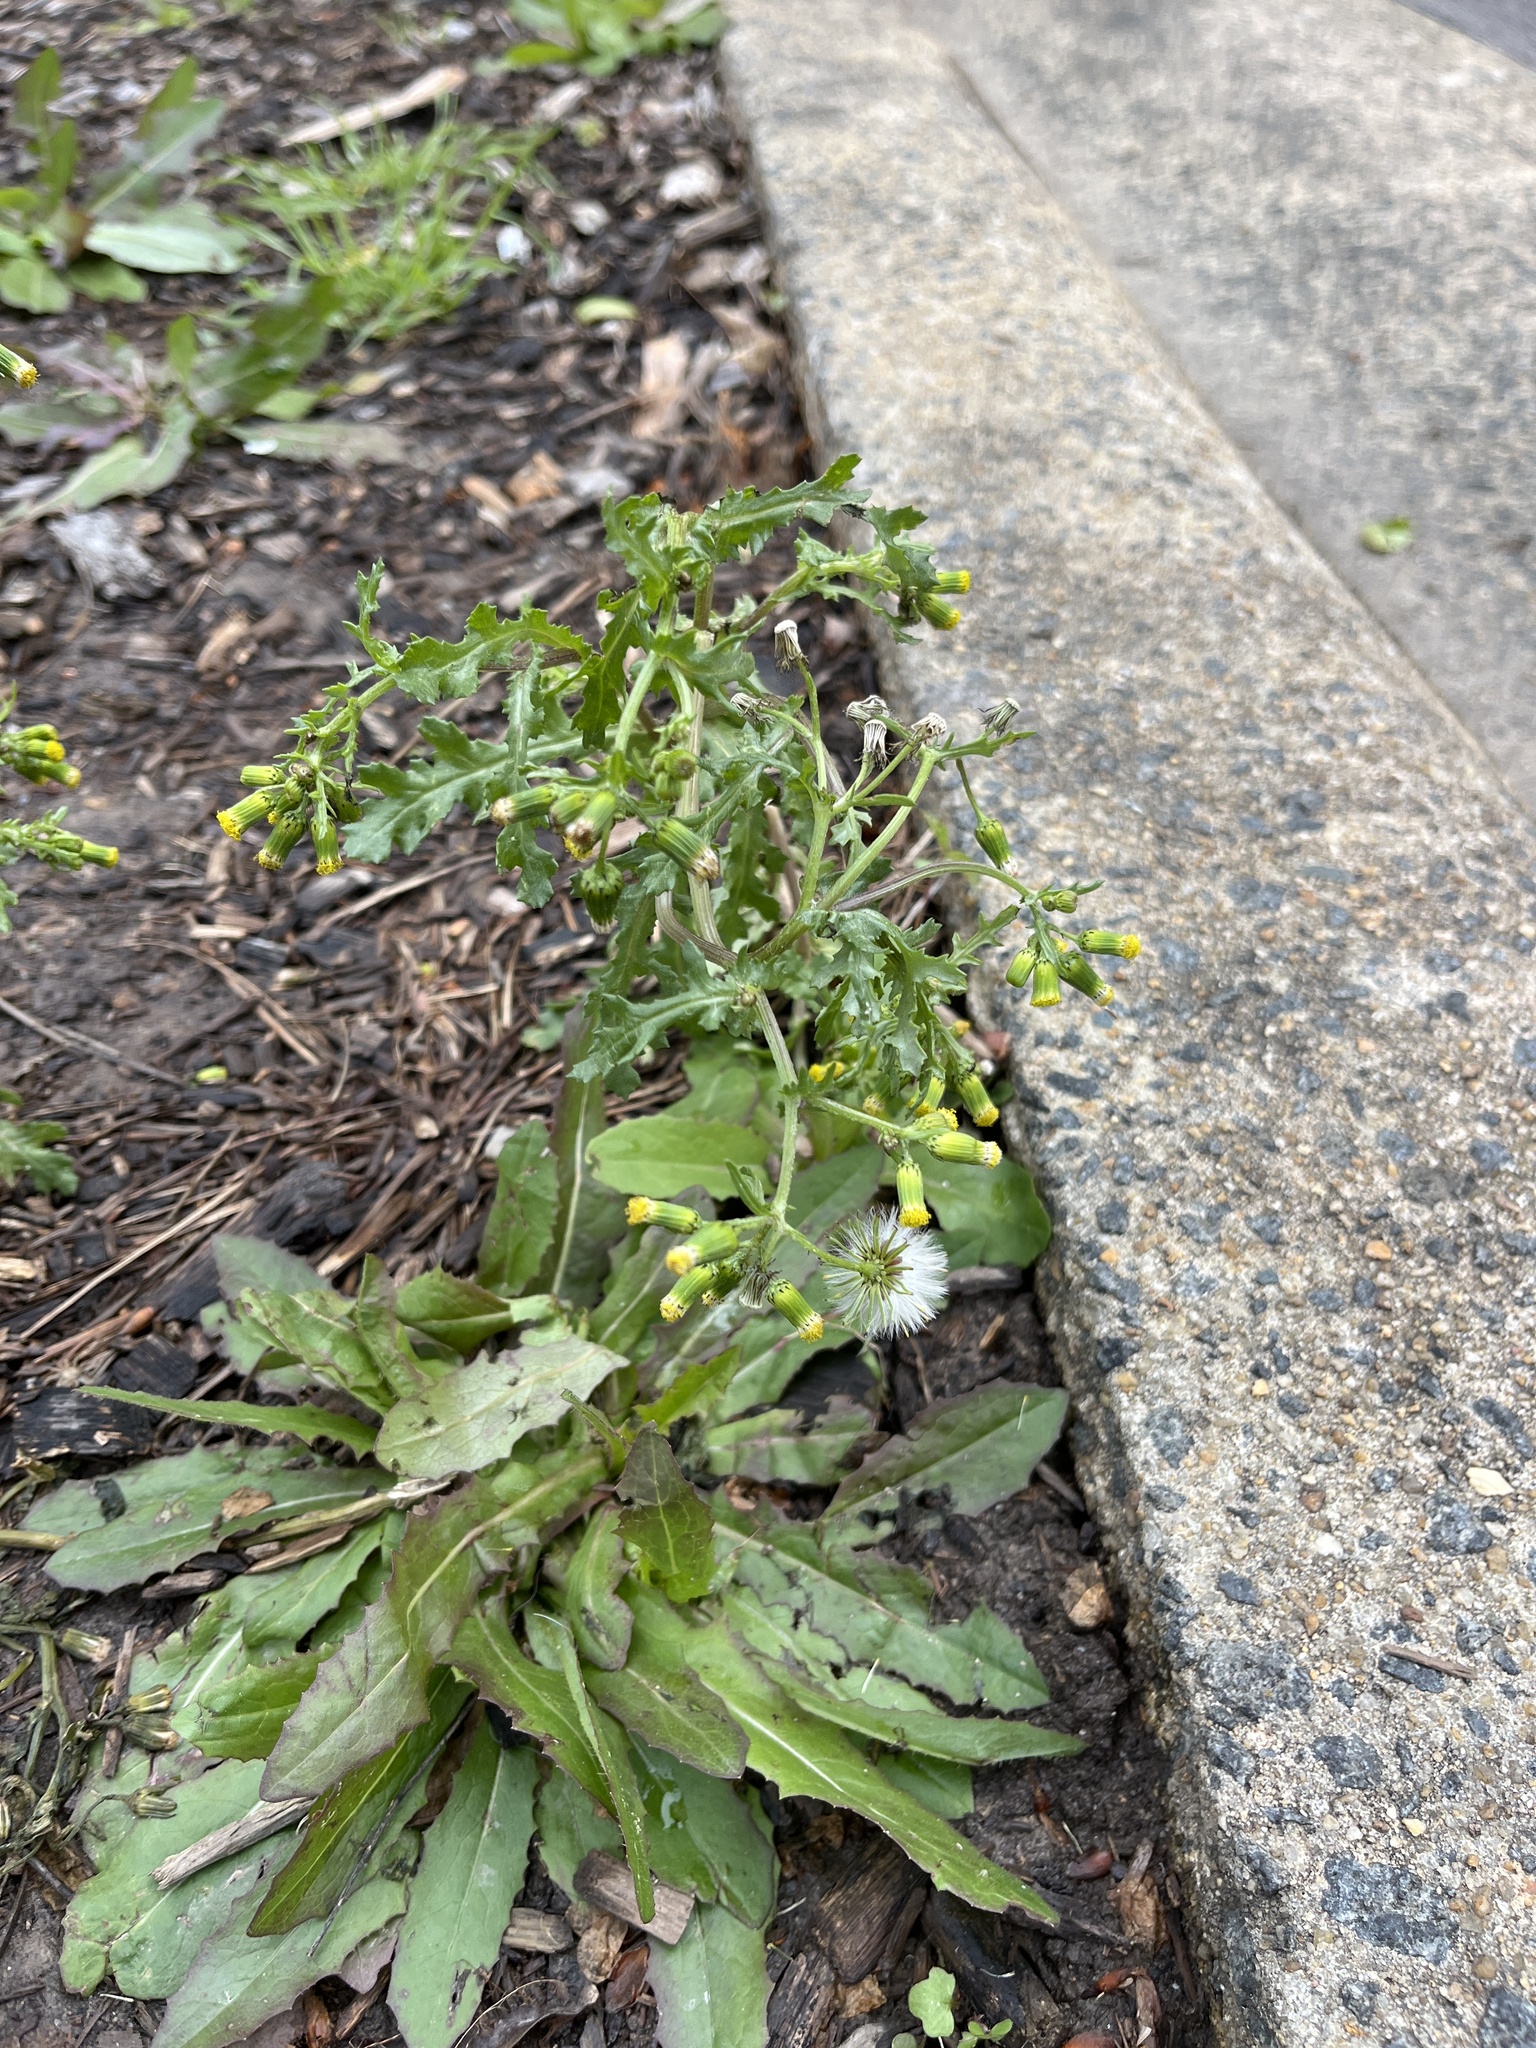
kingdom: Plantae
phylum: Tracheophyta
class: Magnoliopsida
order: Asterales
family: Asteraceae
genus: Senecio
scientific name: Senecio vulgaris
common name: Old-man-in-the-spring
